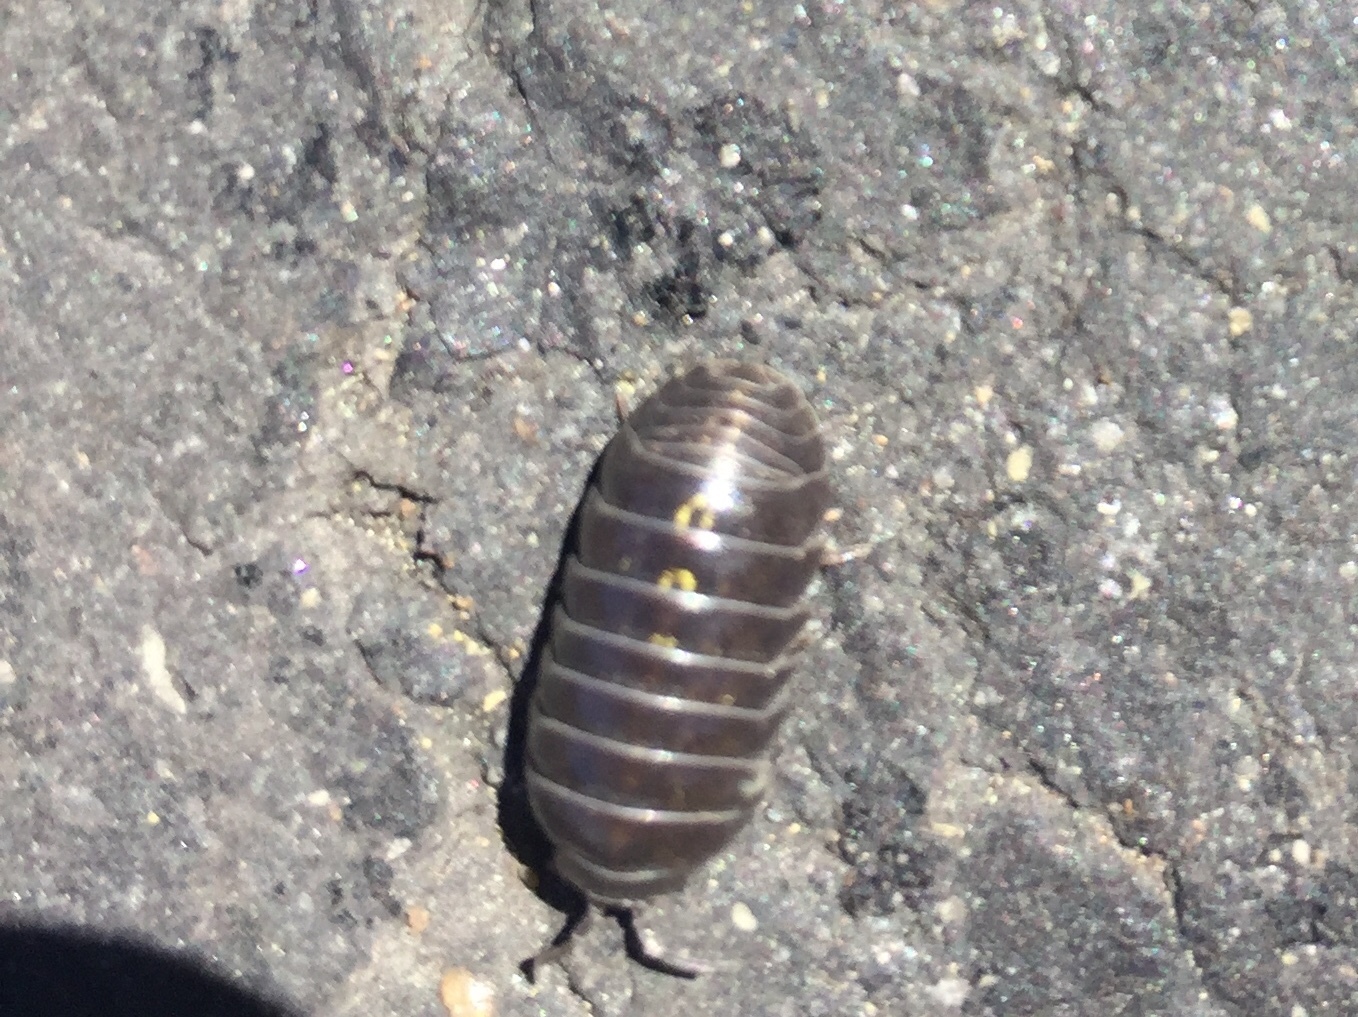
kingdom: Animalia
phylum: Arthropoda
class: Malacostraca
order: Isopoda
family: Armadillidiidae
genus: Armadillidium
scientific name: Armadillidium vulgare
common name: Common pill woodlouse
